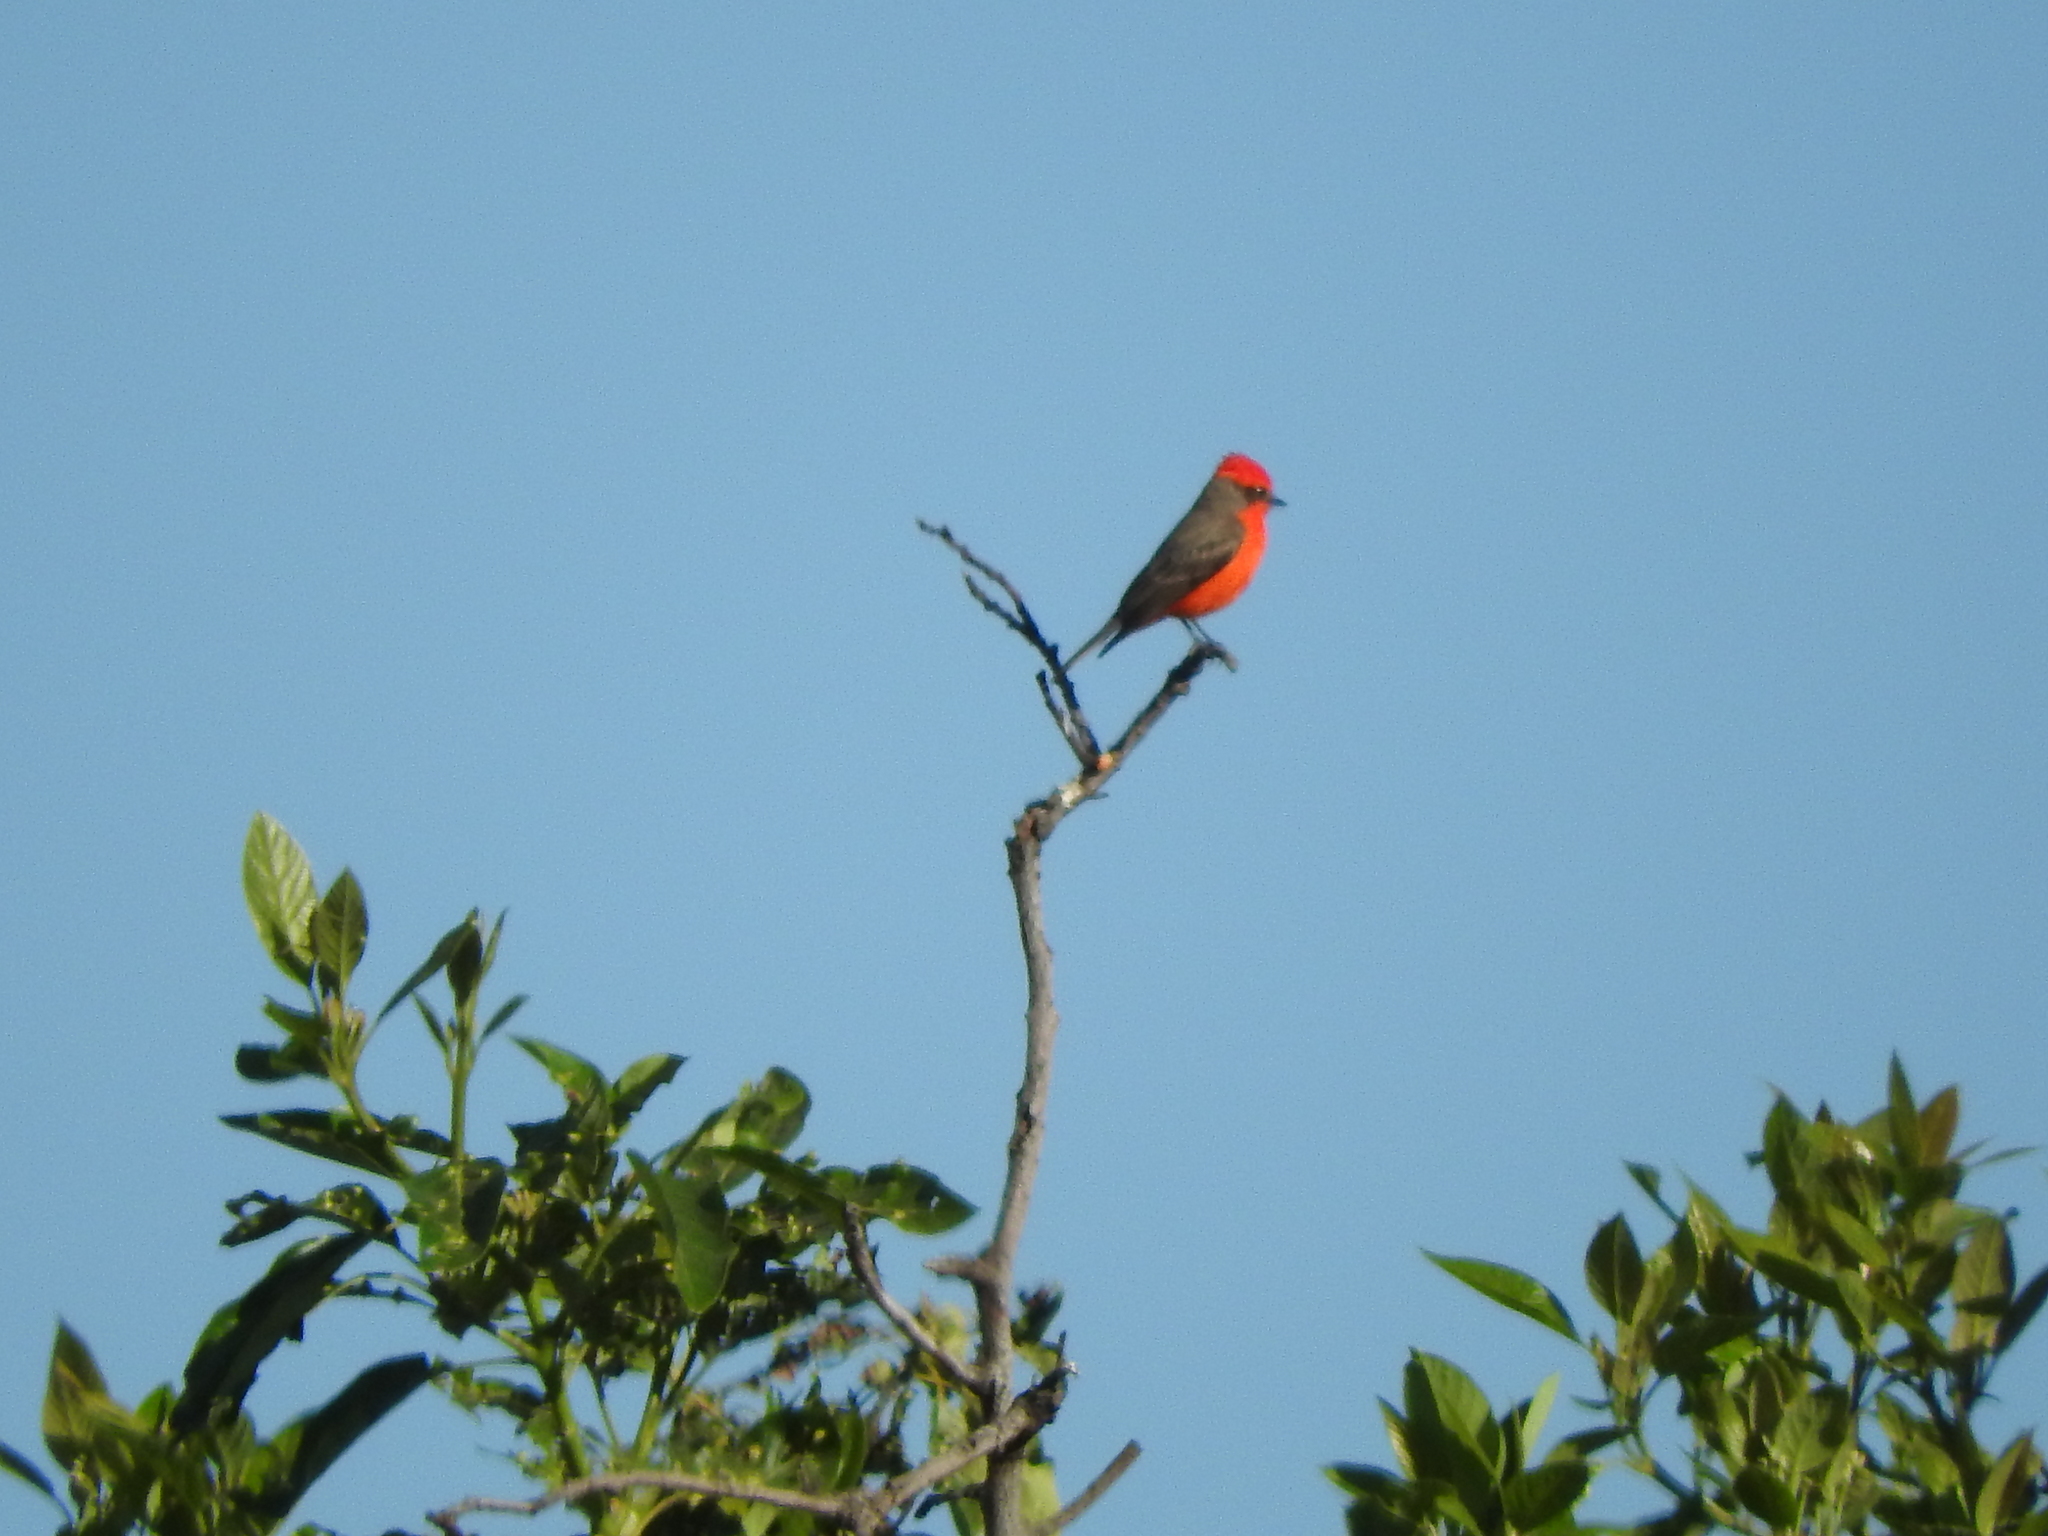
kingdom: Animalia
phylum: Chordata
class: Aves
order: Passeriformes
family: Tyrannidae
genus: Pyrocephalus
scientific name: Pyrocephalus rubinus
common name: Vermilion flycatcher
